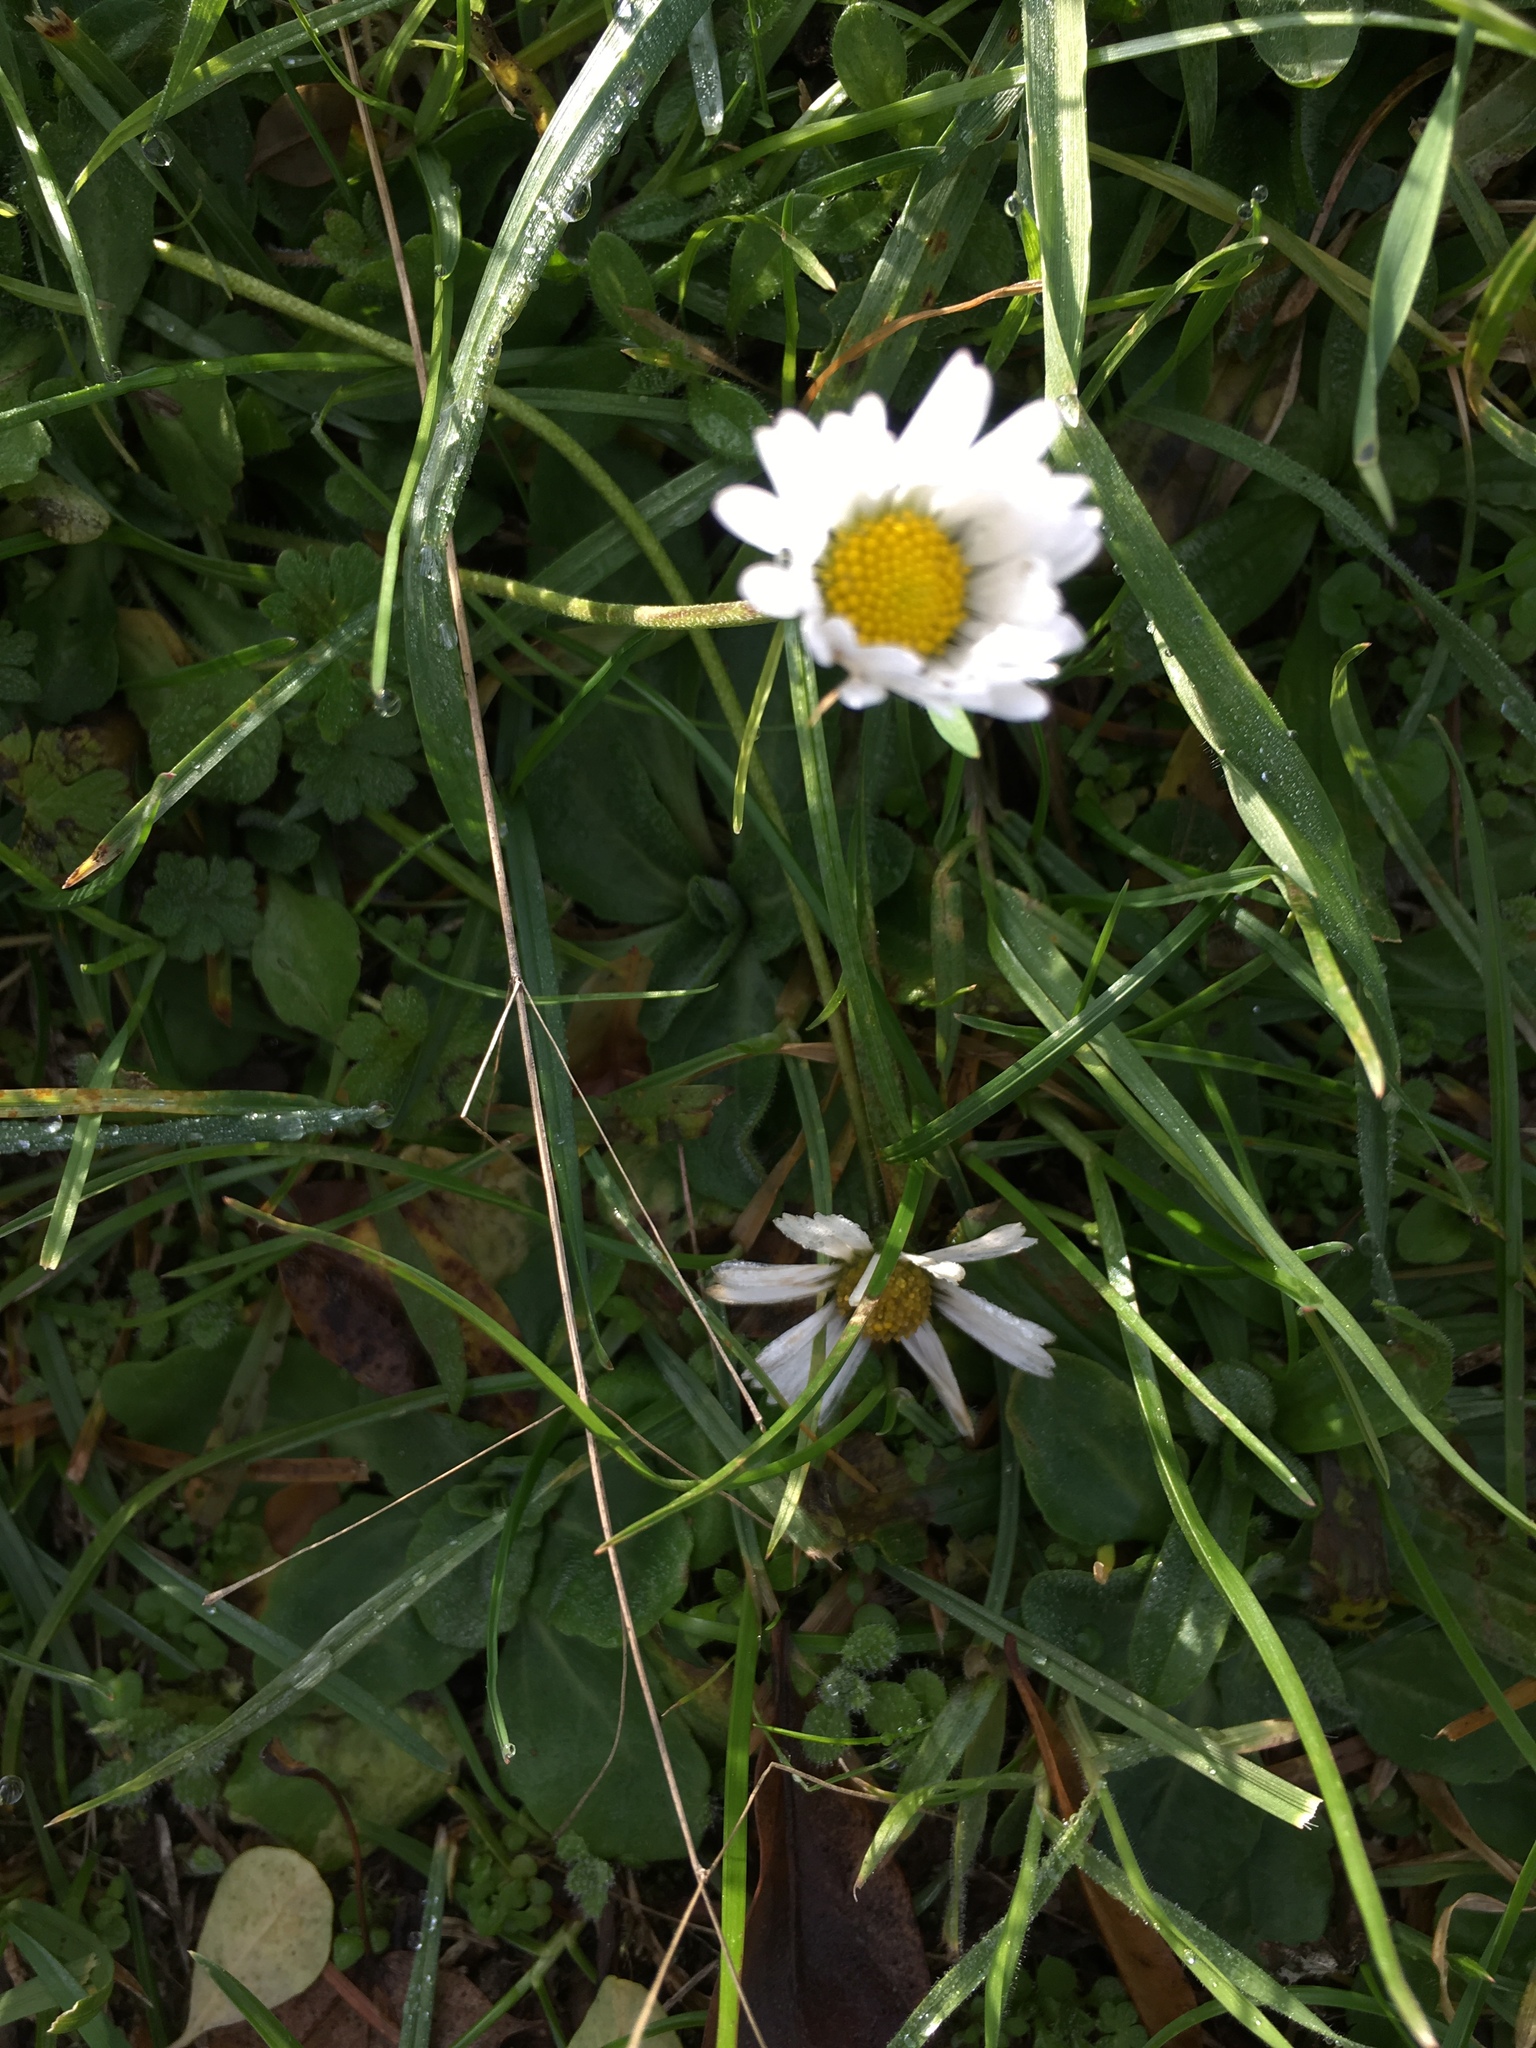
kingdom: Plantae
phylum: Tracheophyta
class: Magnoliopsida
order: Asterales
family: Asteraceae
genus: Bellis
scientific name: Bellis perennis
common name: Lawndaisy
